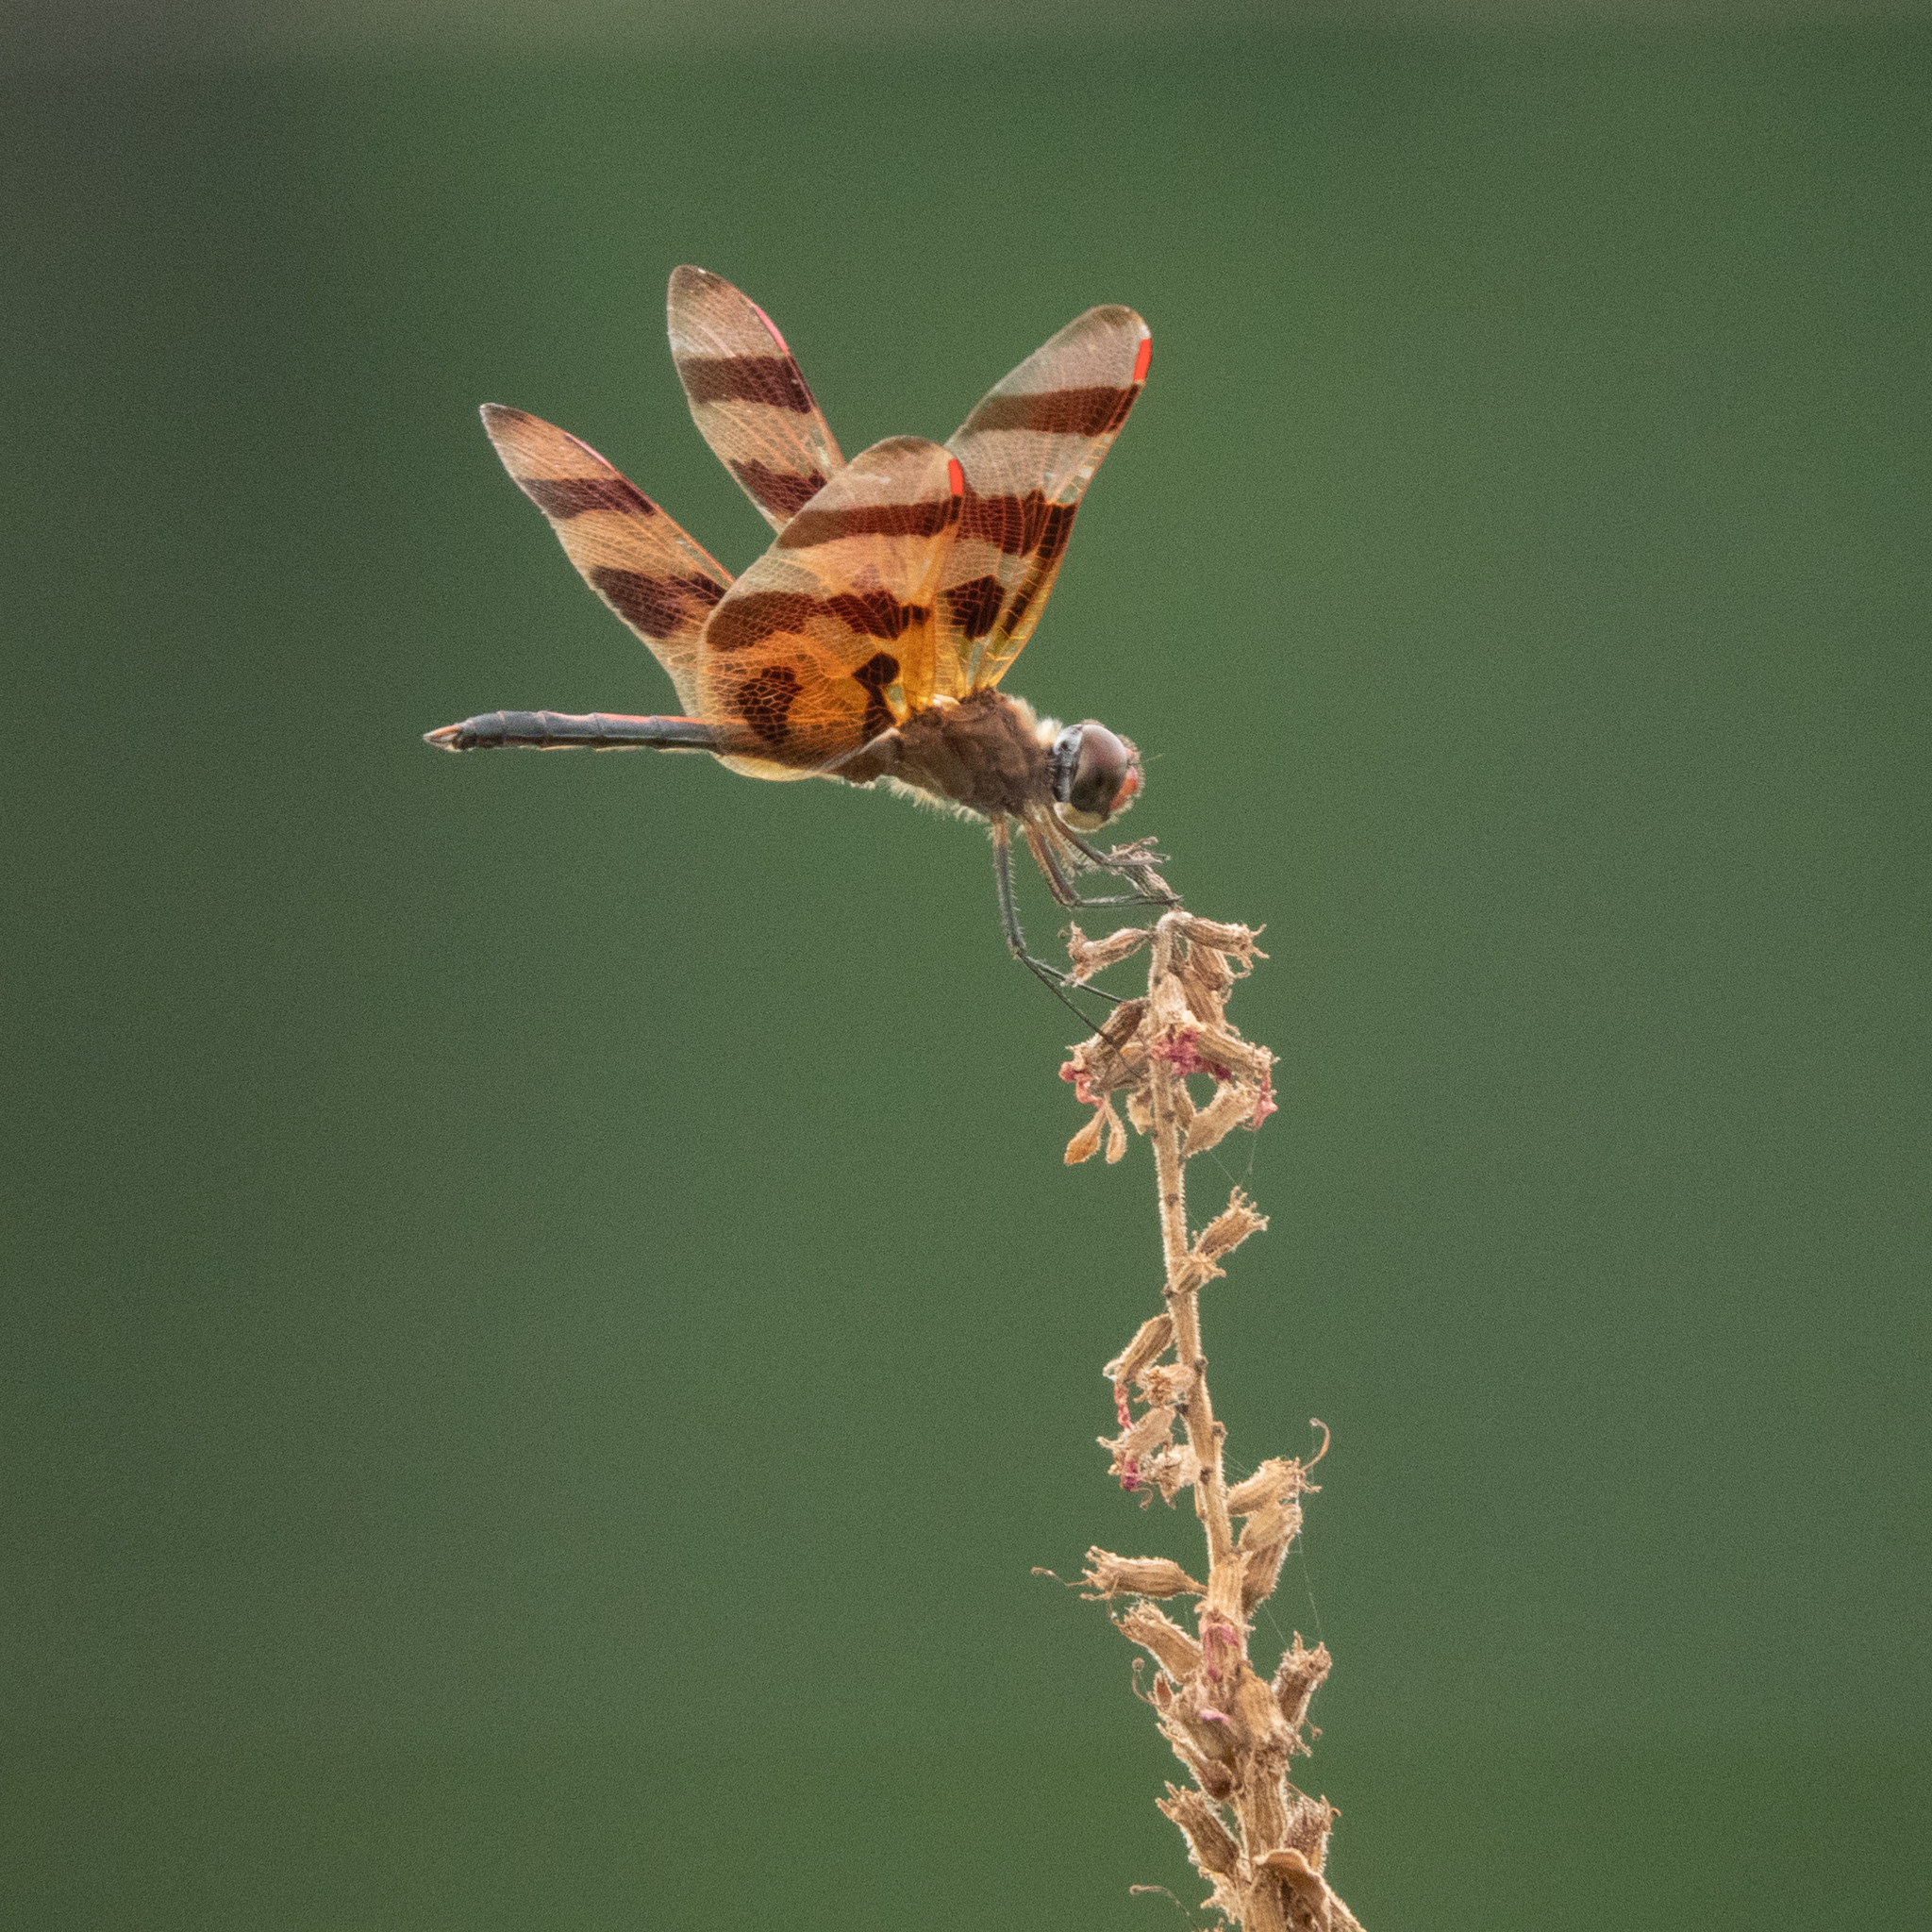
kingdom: Animalia
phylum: Arthropoda
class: Insecta
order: Odonata
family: Libellulidae
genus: Celithemis
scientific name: Celithemis eponina
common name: Halloween pennant
